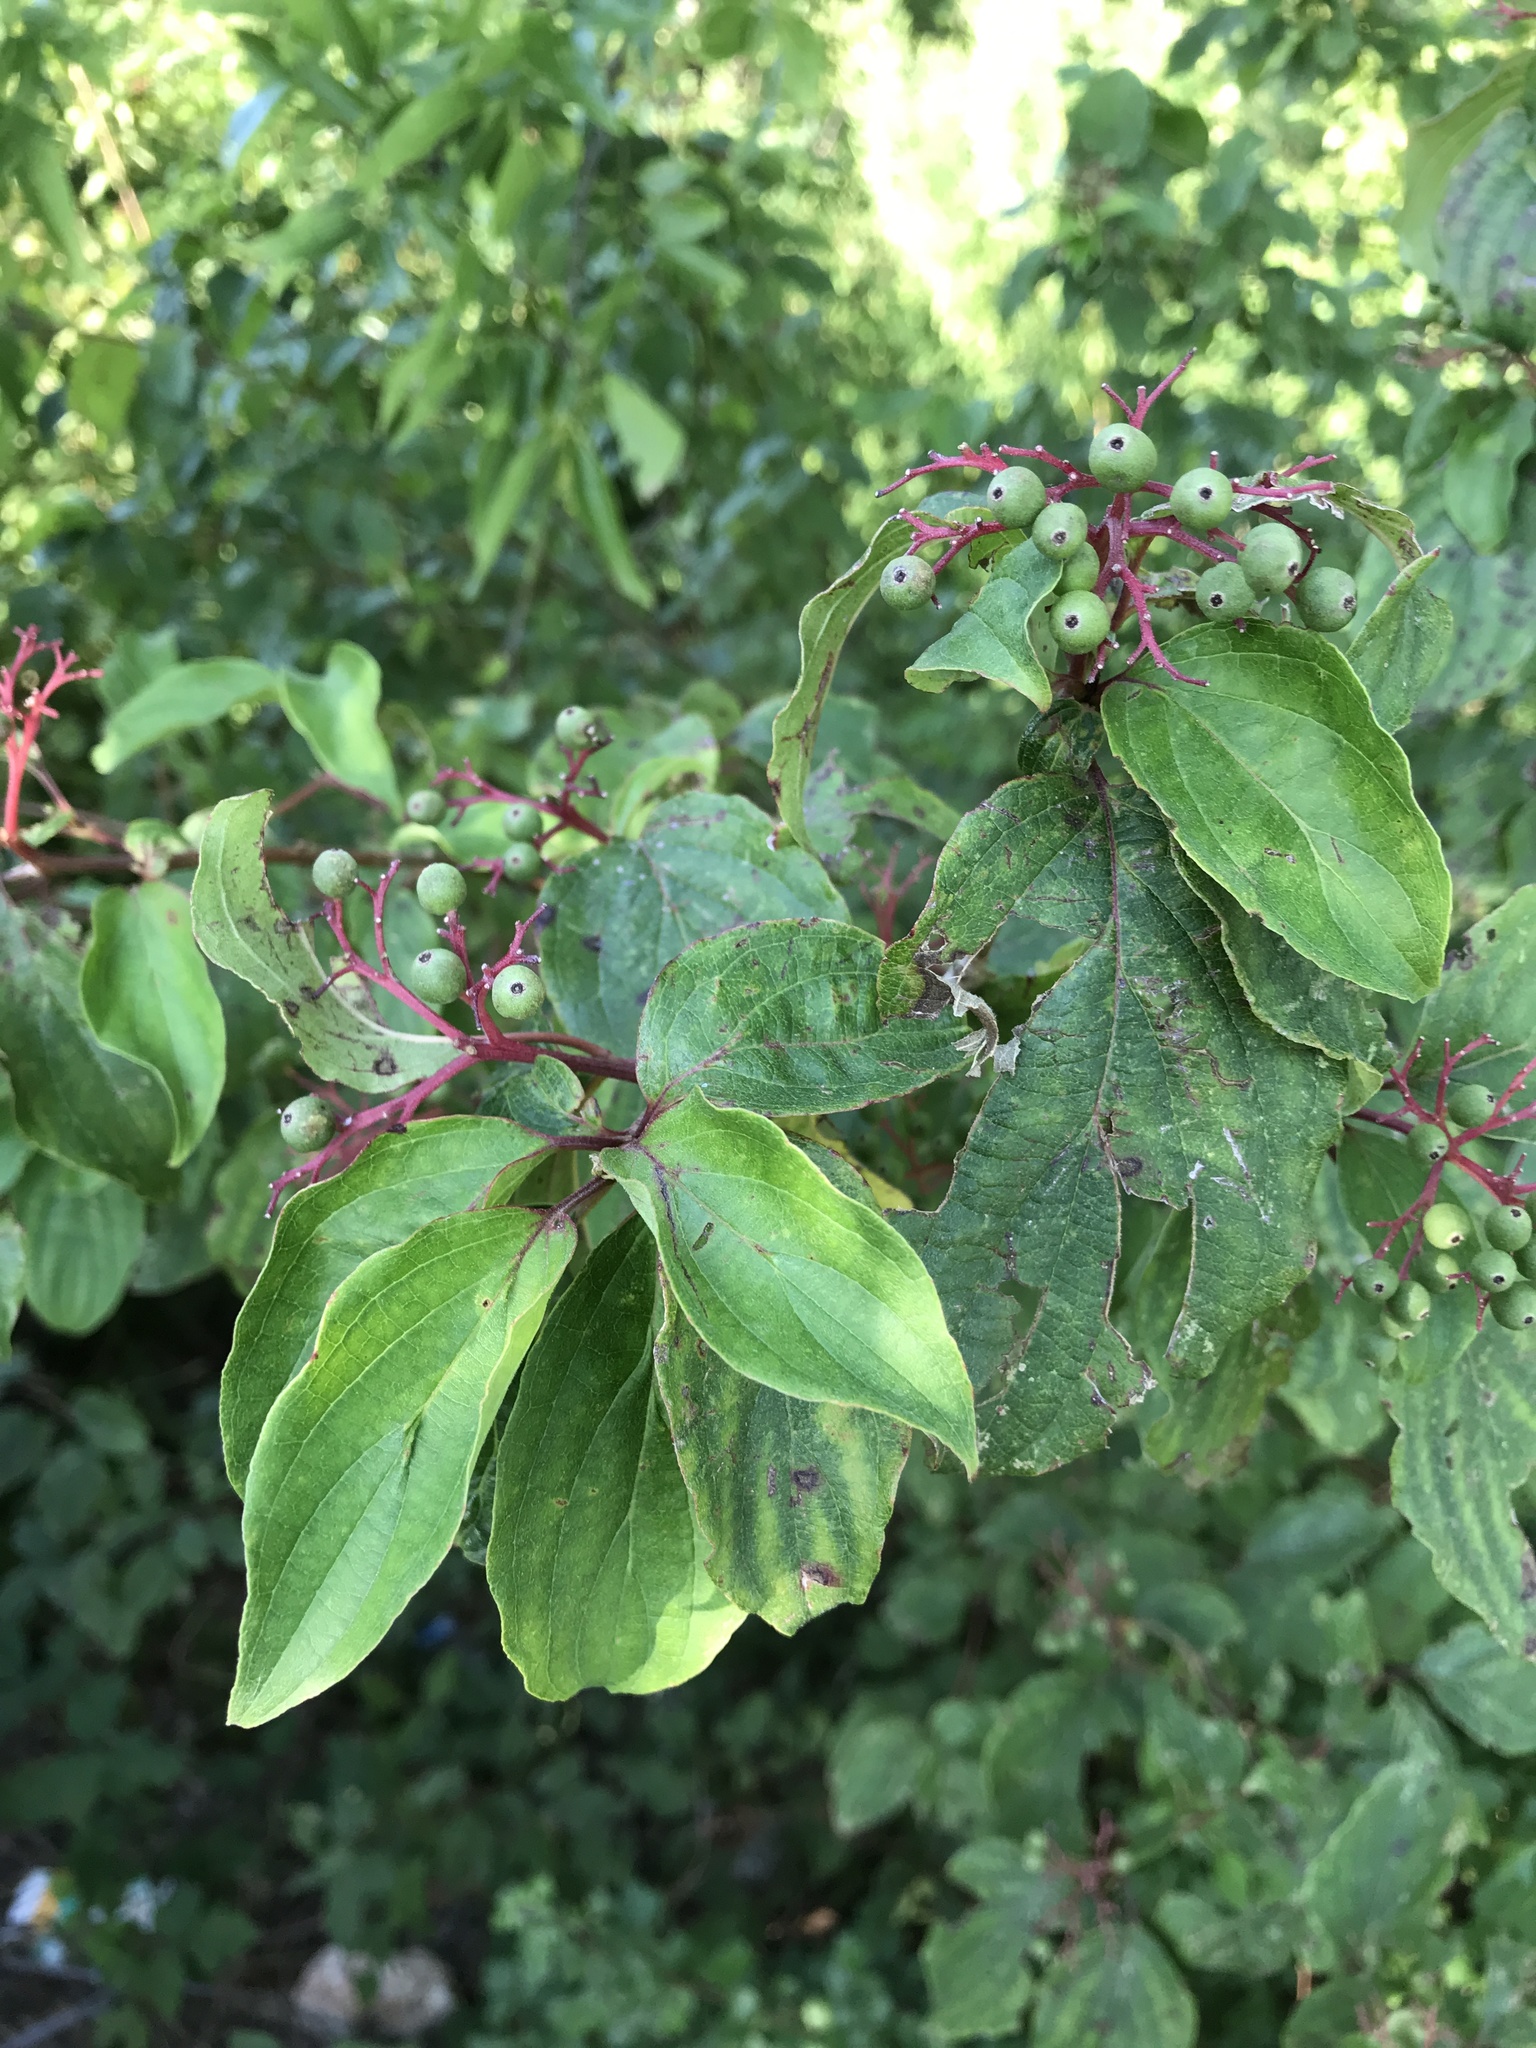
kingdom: Plantae
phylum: Tracheophyta
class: Magnoliopsida
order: Cornales
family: Cornaceae
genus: Cornus
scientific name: Cornus drummondii
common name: Rough-leaf dogwood
